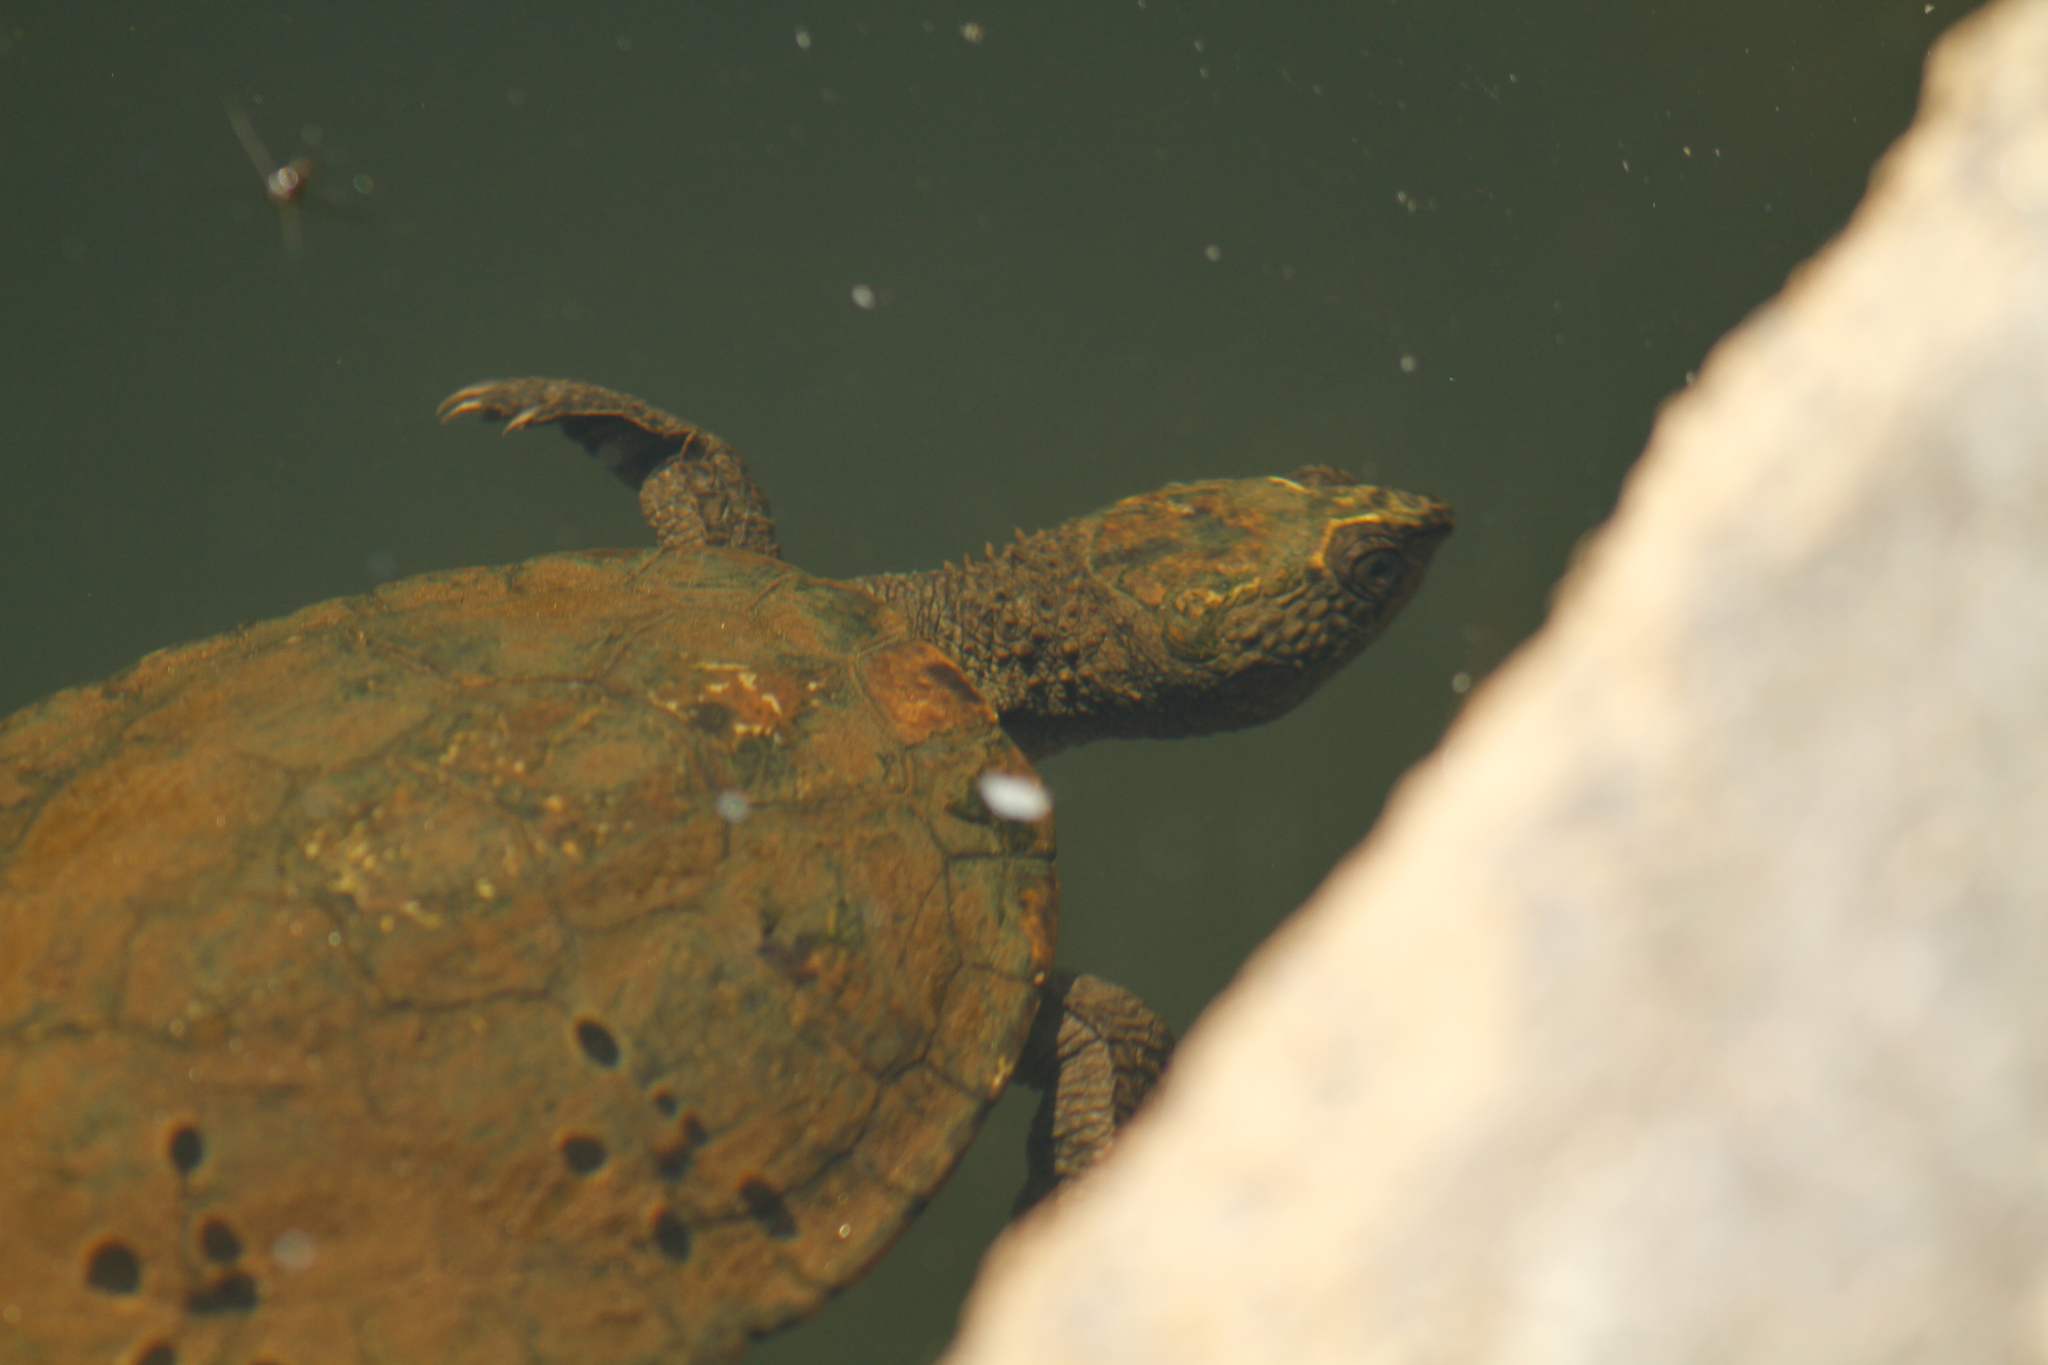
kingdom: Animalia
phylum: Chordata
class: Testudines
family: Chelidae
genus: Myuchelys
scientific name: Myuchelys latisternum
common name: Serrated snapping turtle
